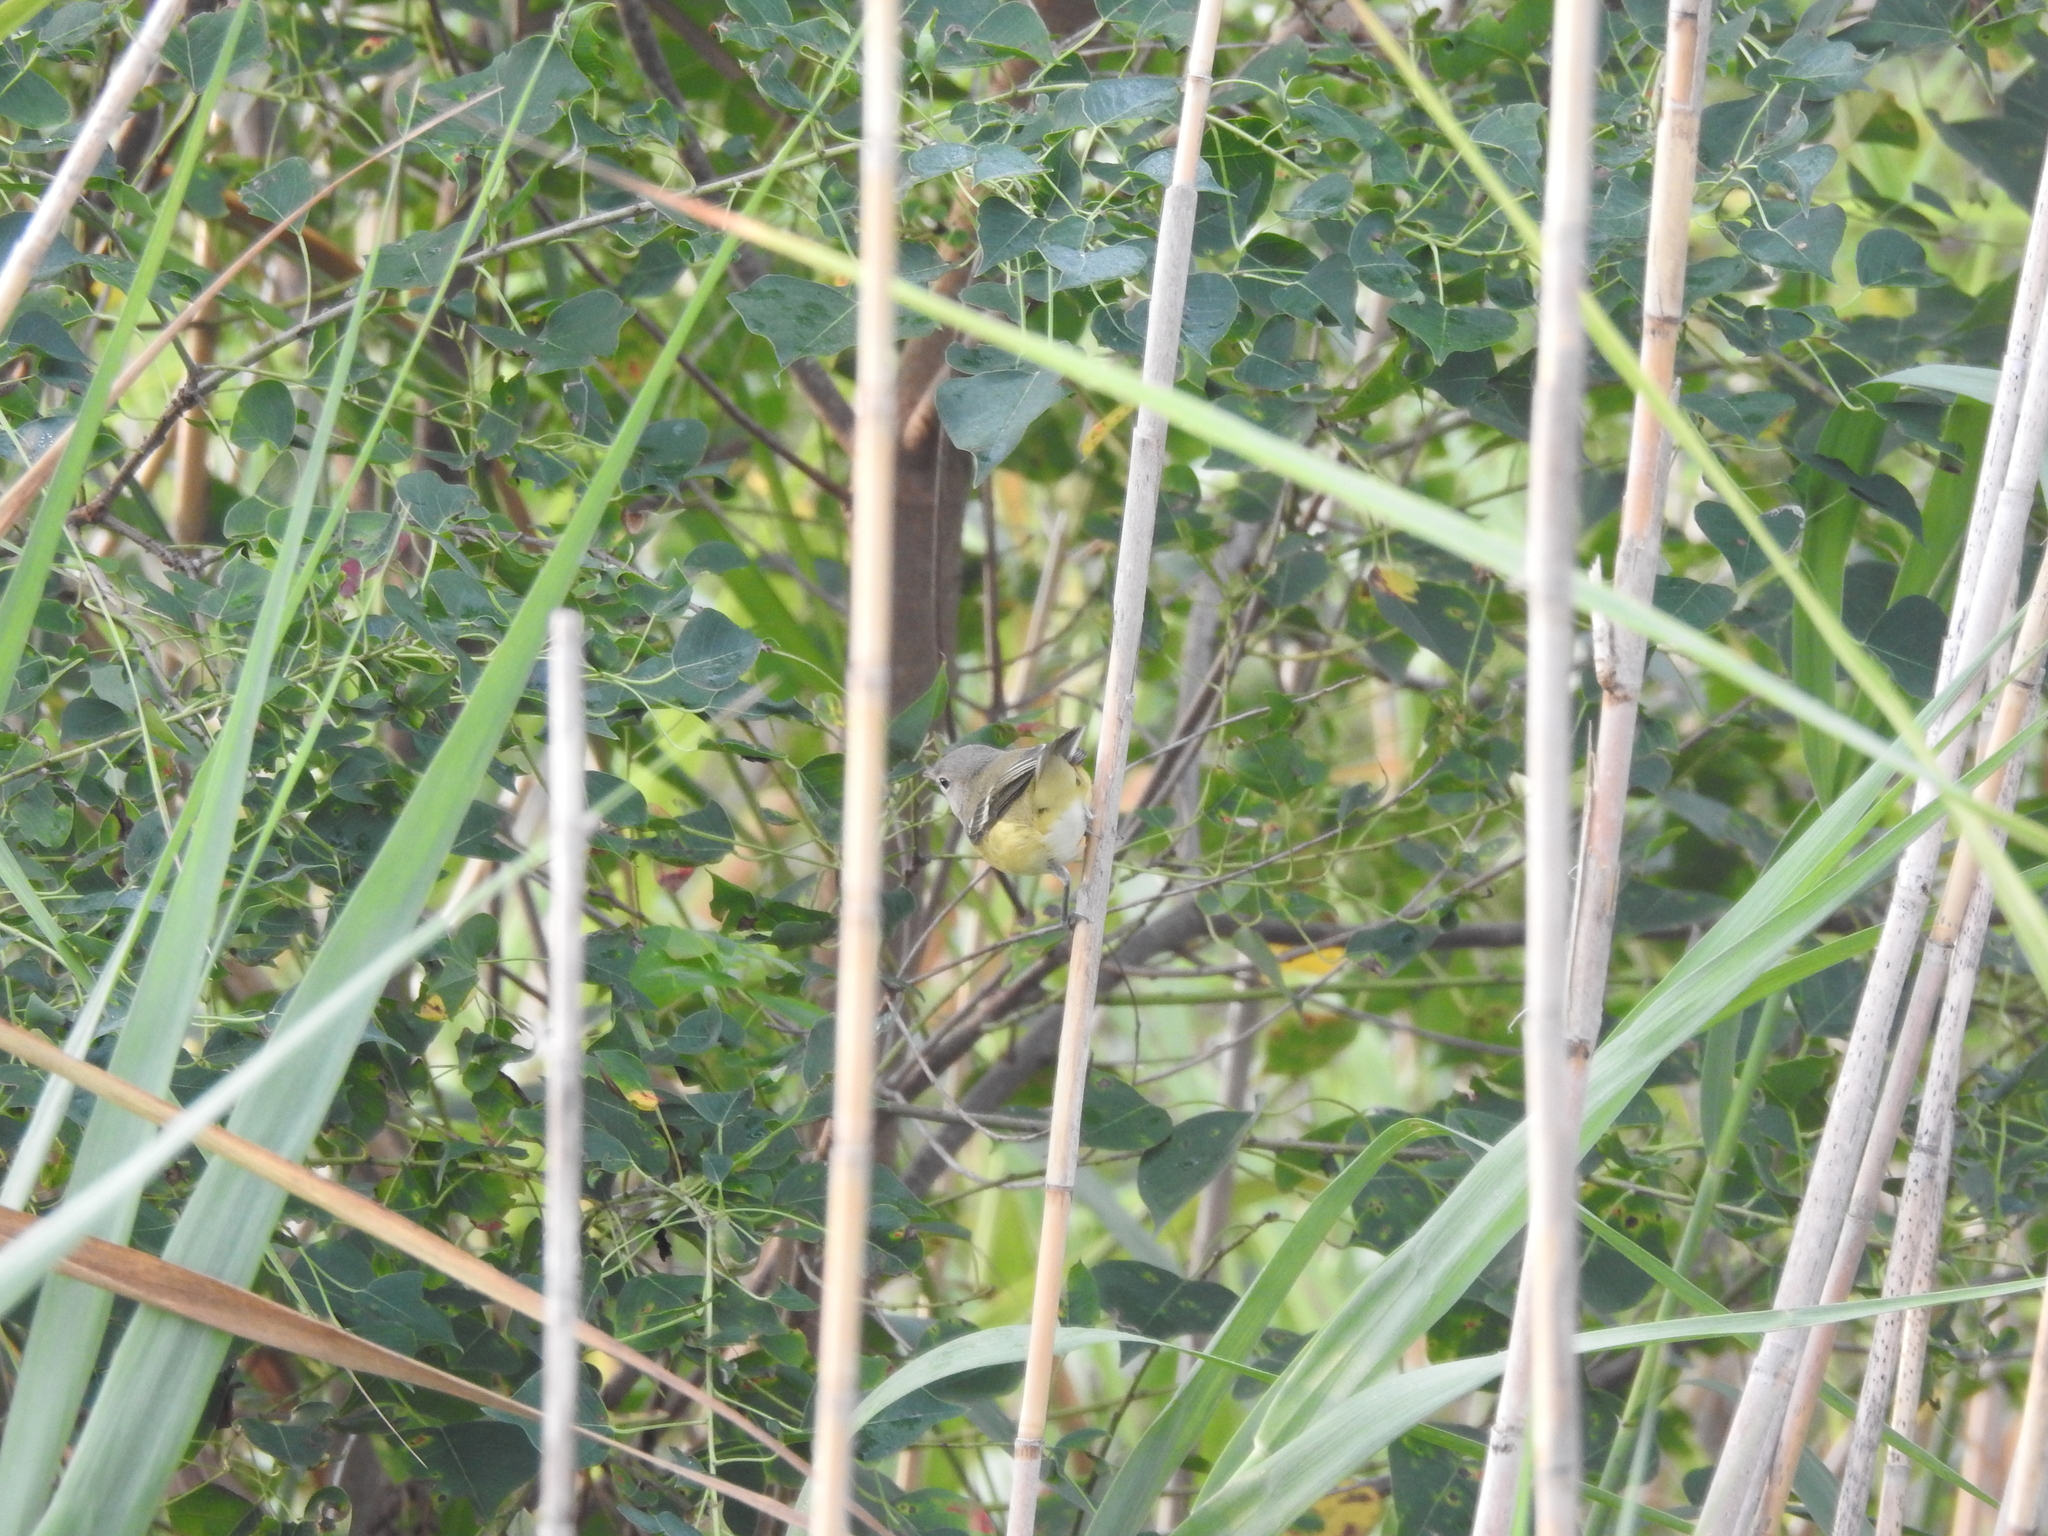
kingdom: Animalia
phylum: Chordata
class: Aves
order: Passeriformes
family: Vireonidae
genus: Vireo
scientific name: Vireo bellii
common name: Bell's vireo
